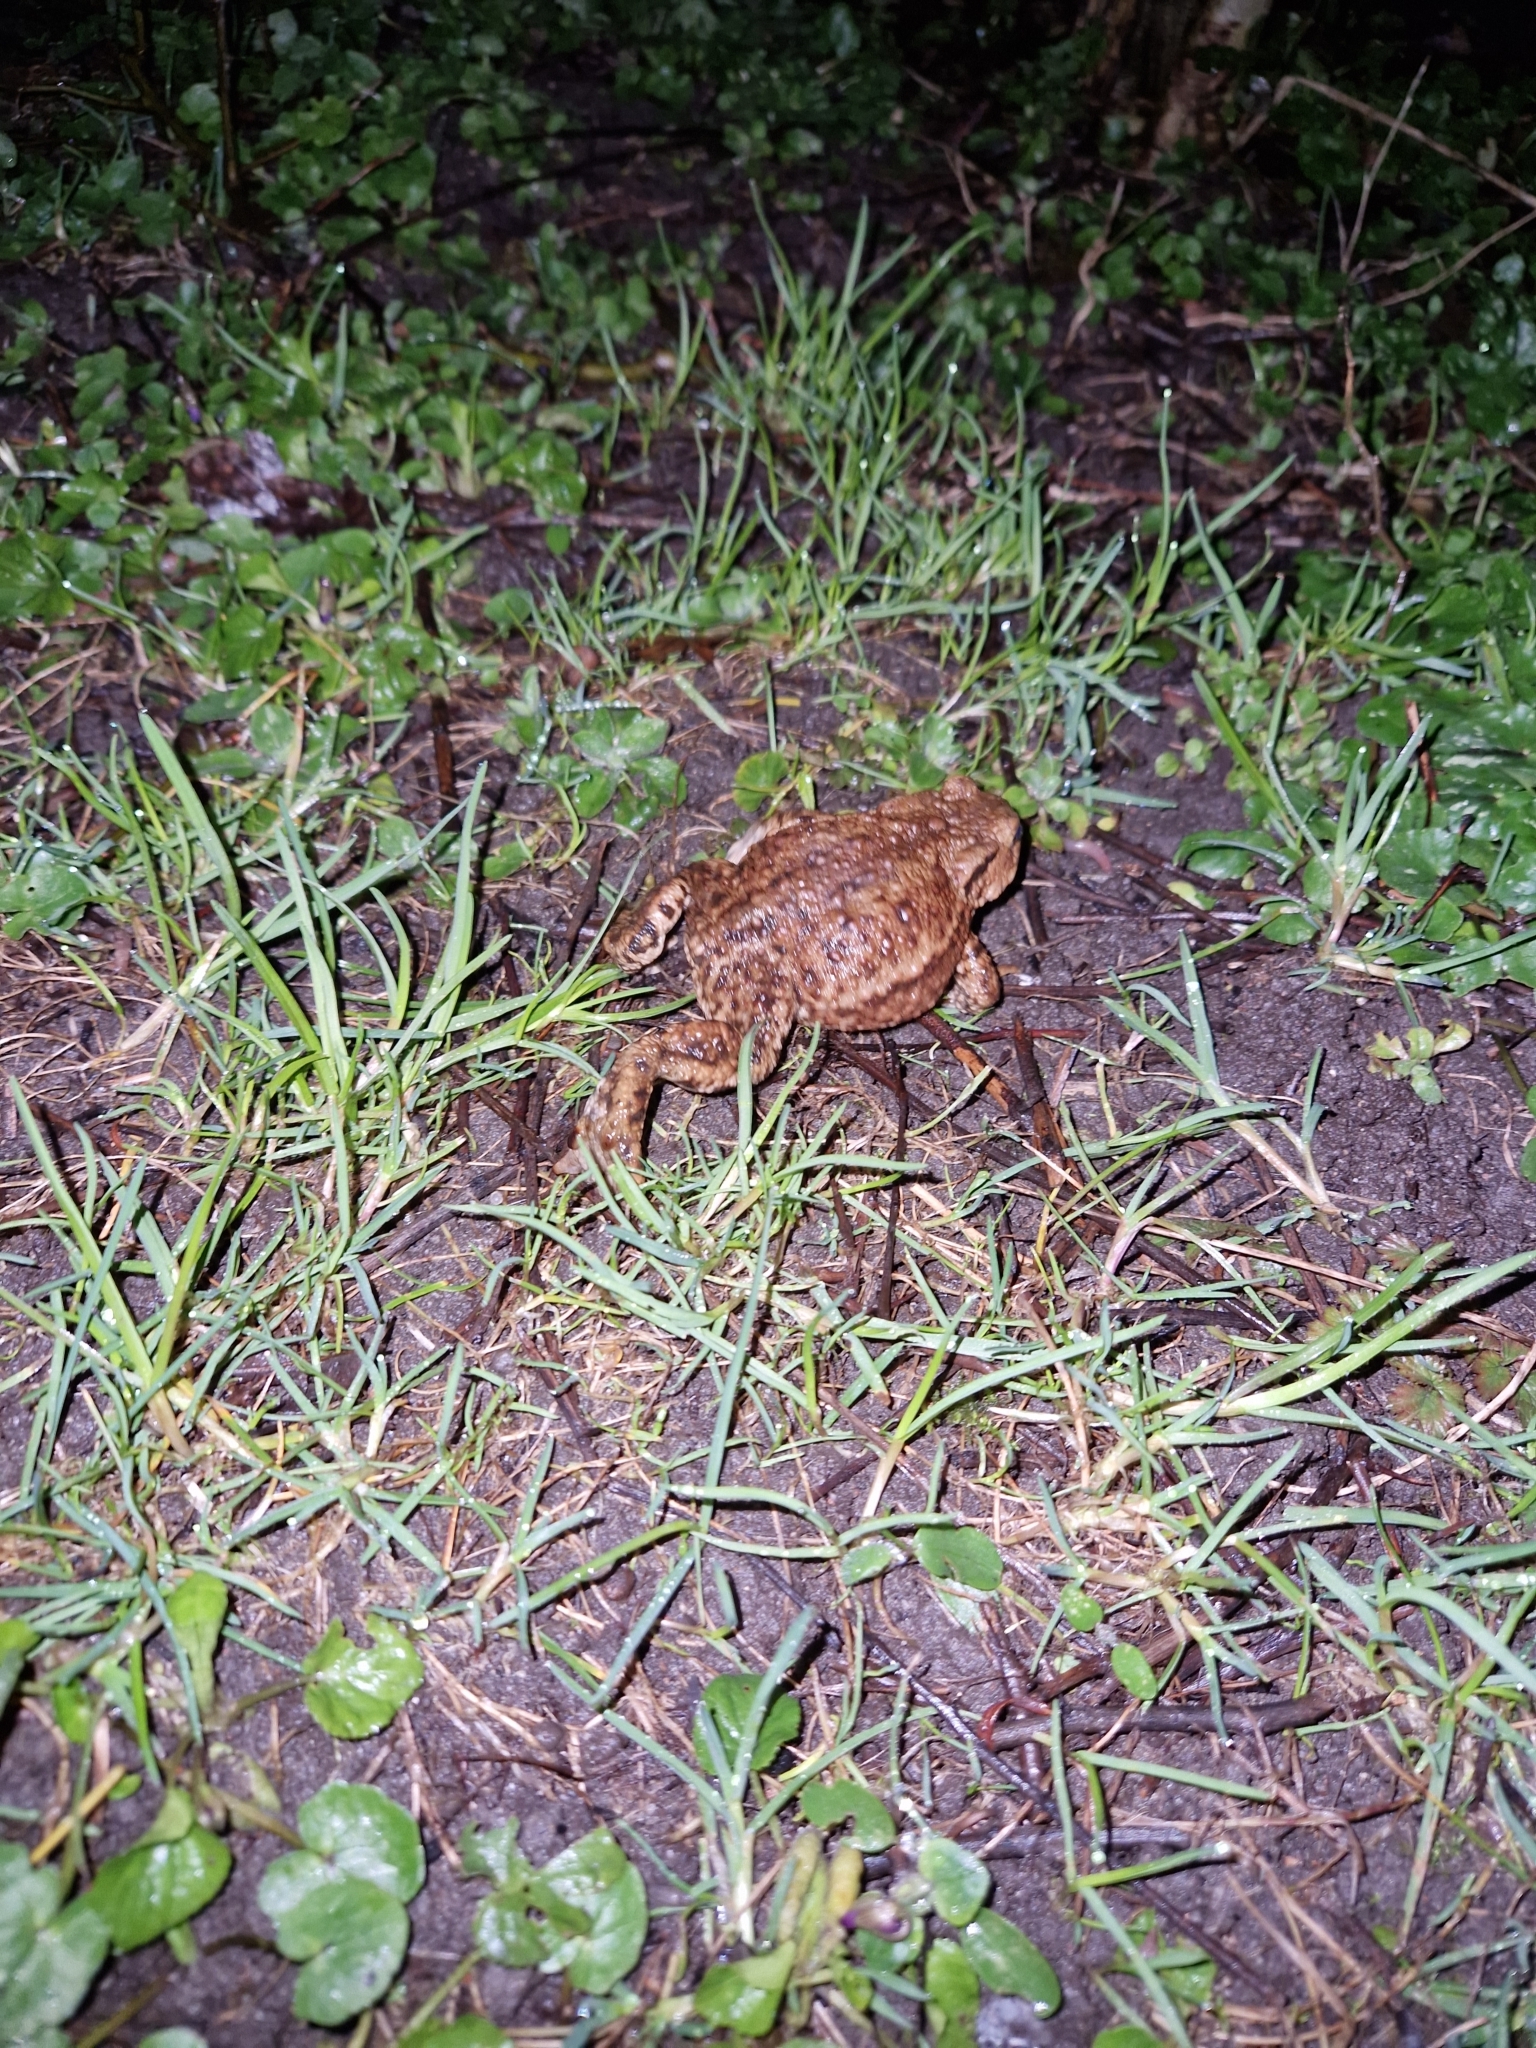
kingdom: Animalia
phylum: Chordata
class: Amphibia
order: Anura
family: Bufonidae
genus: Bufo
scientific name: Bufo bufo
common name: Common toad
